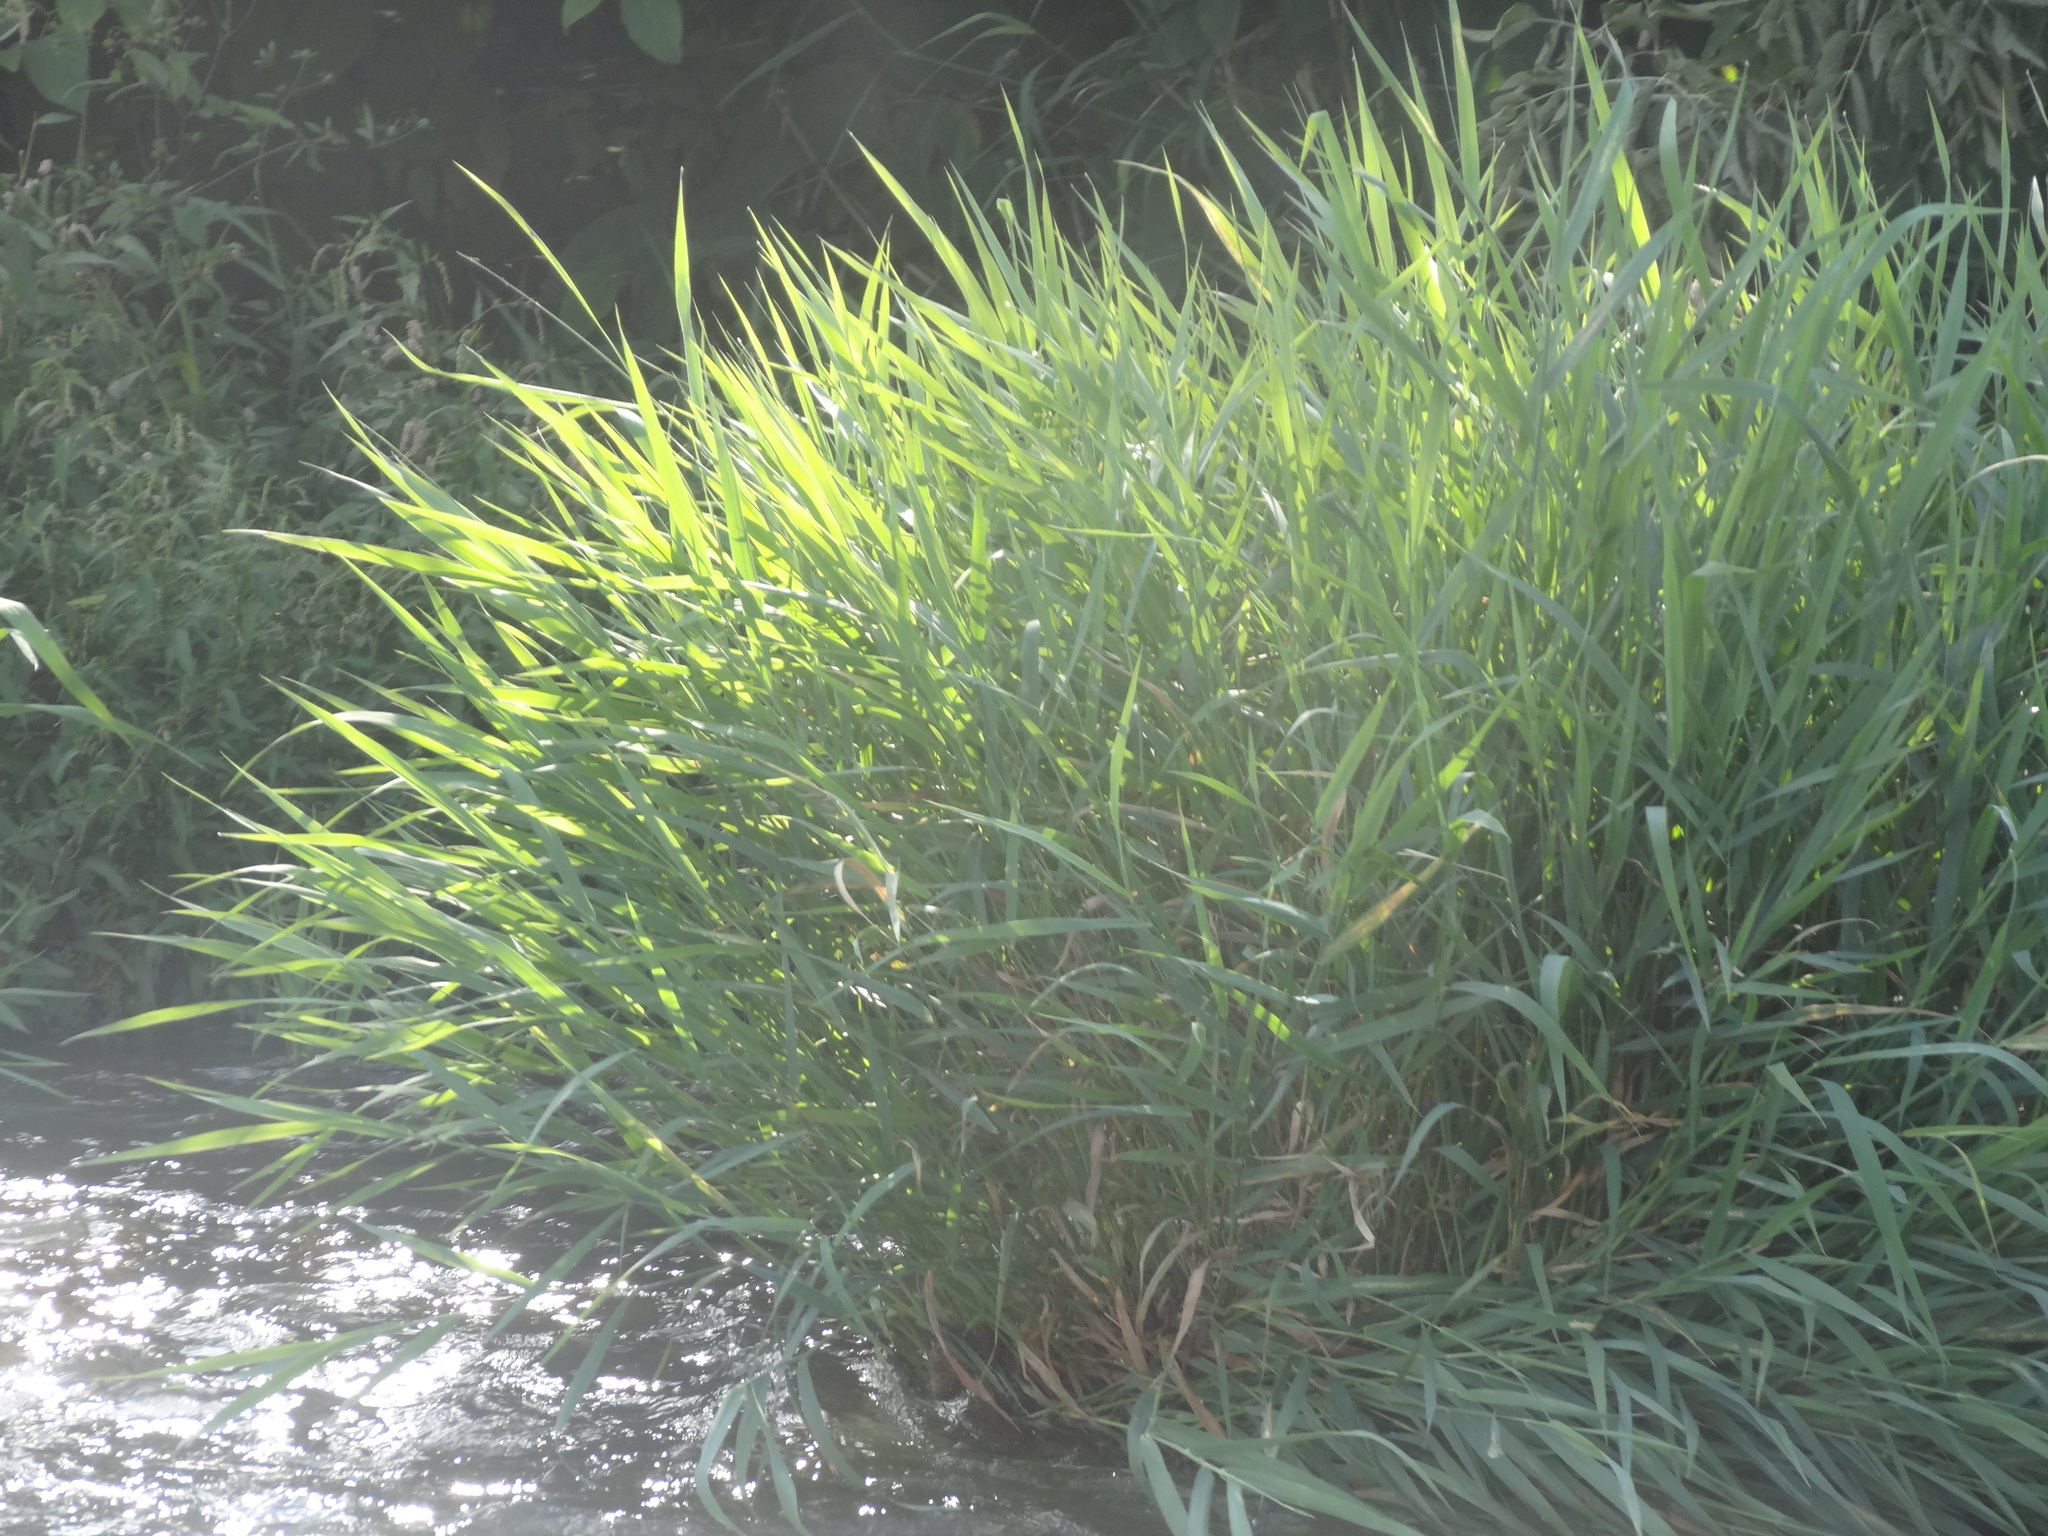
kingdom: Plantae
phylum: Tracheophyta
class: Liliopsida
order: Poales
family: Poaceae
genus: Phalaris
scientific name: Phalaris arundinacea
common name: Reed canary-grass
